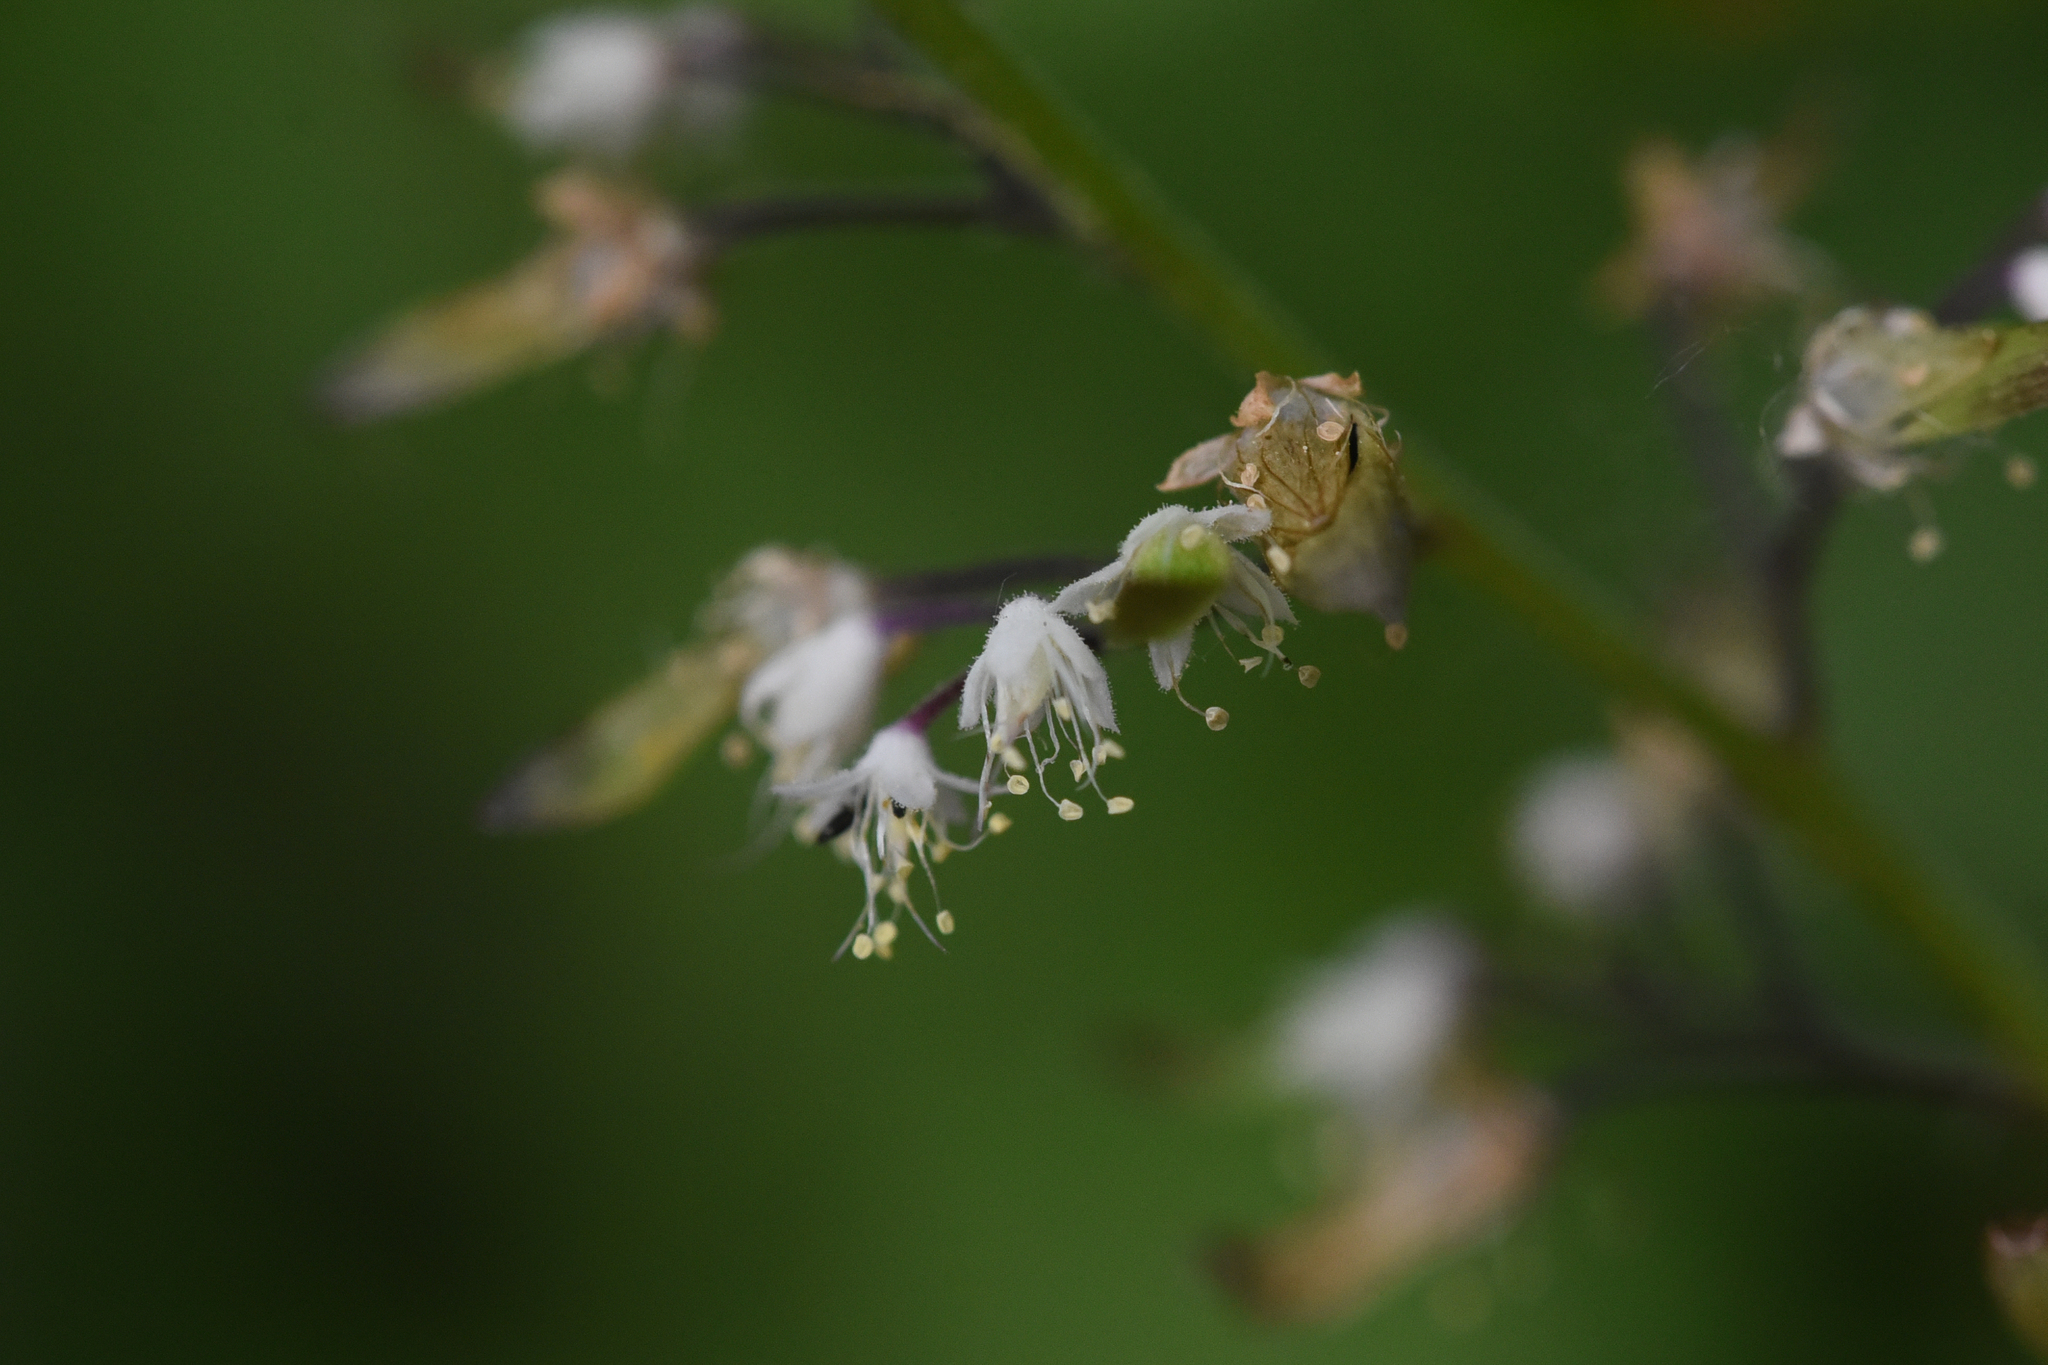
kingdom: Plantae
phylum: Tracheophyta
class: Magnoliopsida
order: Saxifragales
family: Saxifragaceae
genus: Tiarella
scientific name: Tiarella trifoliata
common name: Sugar-scoop
